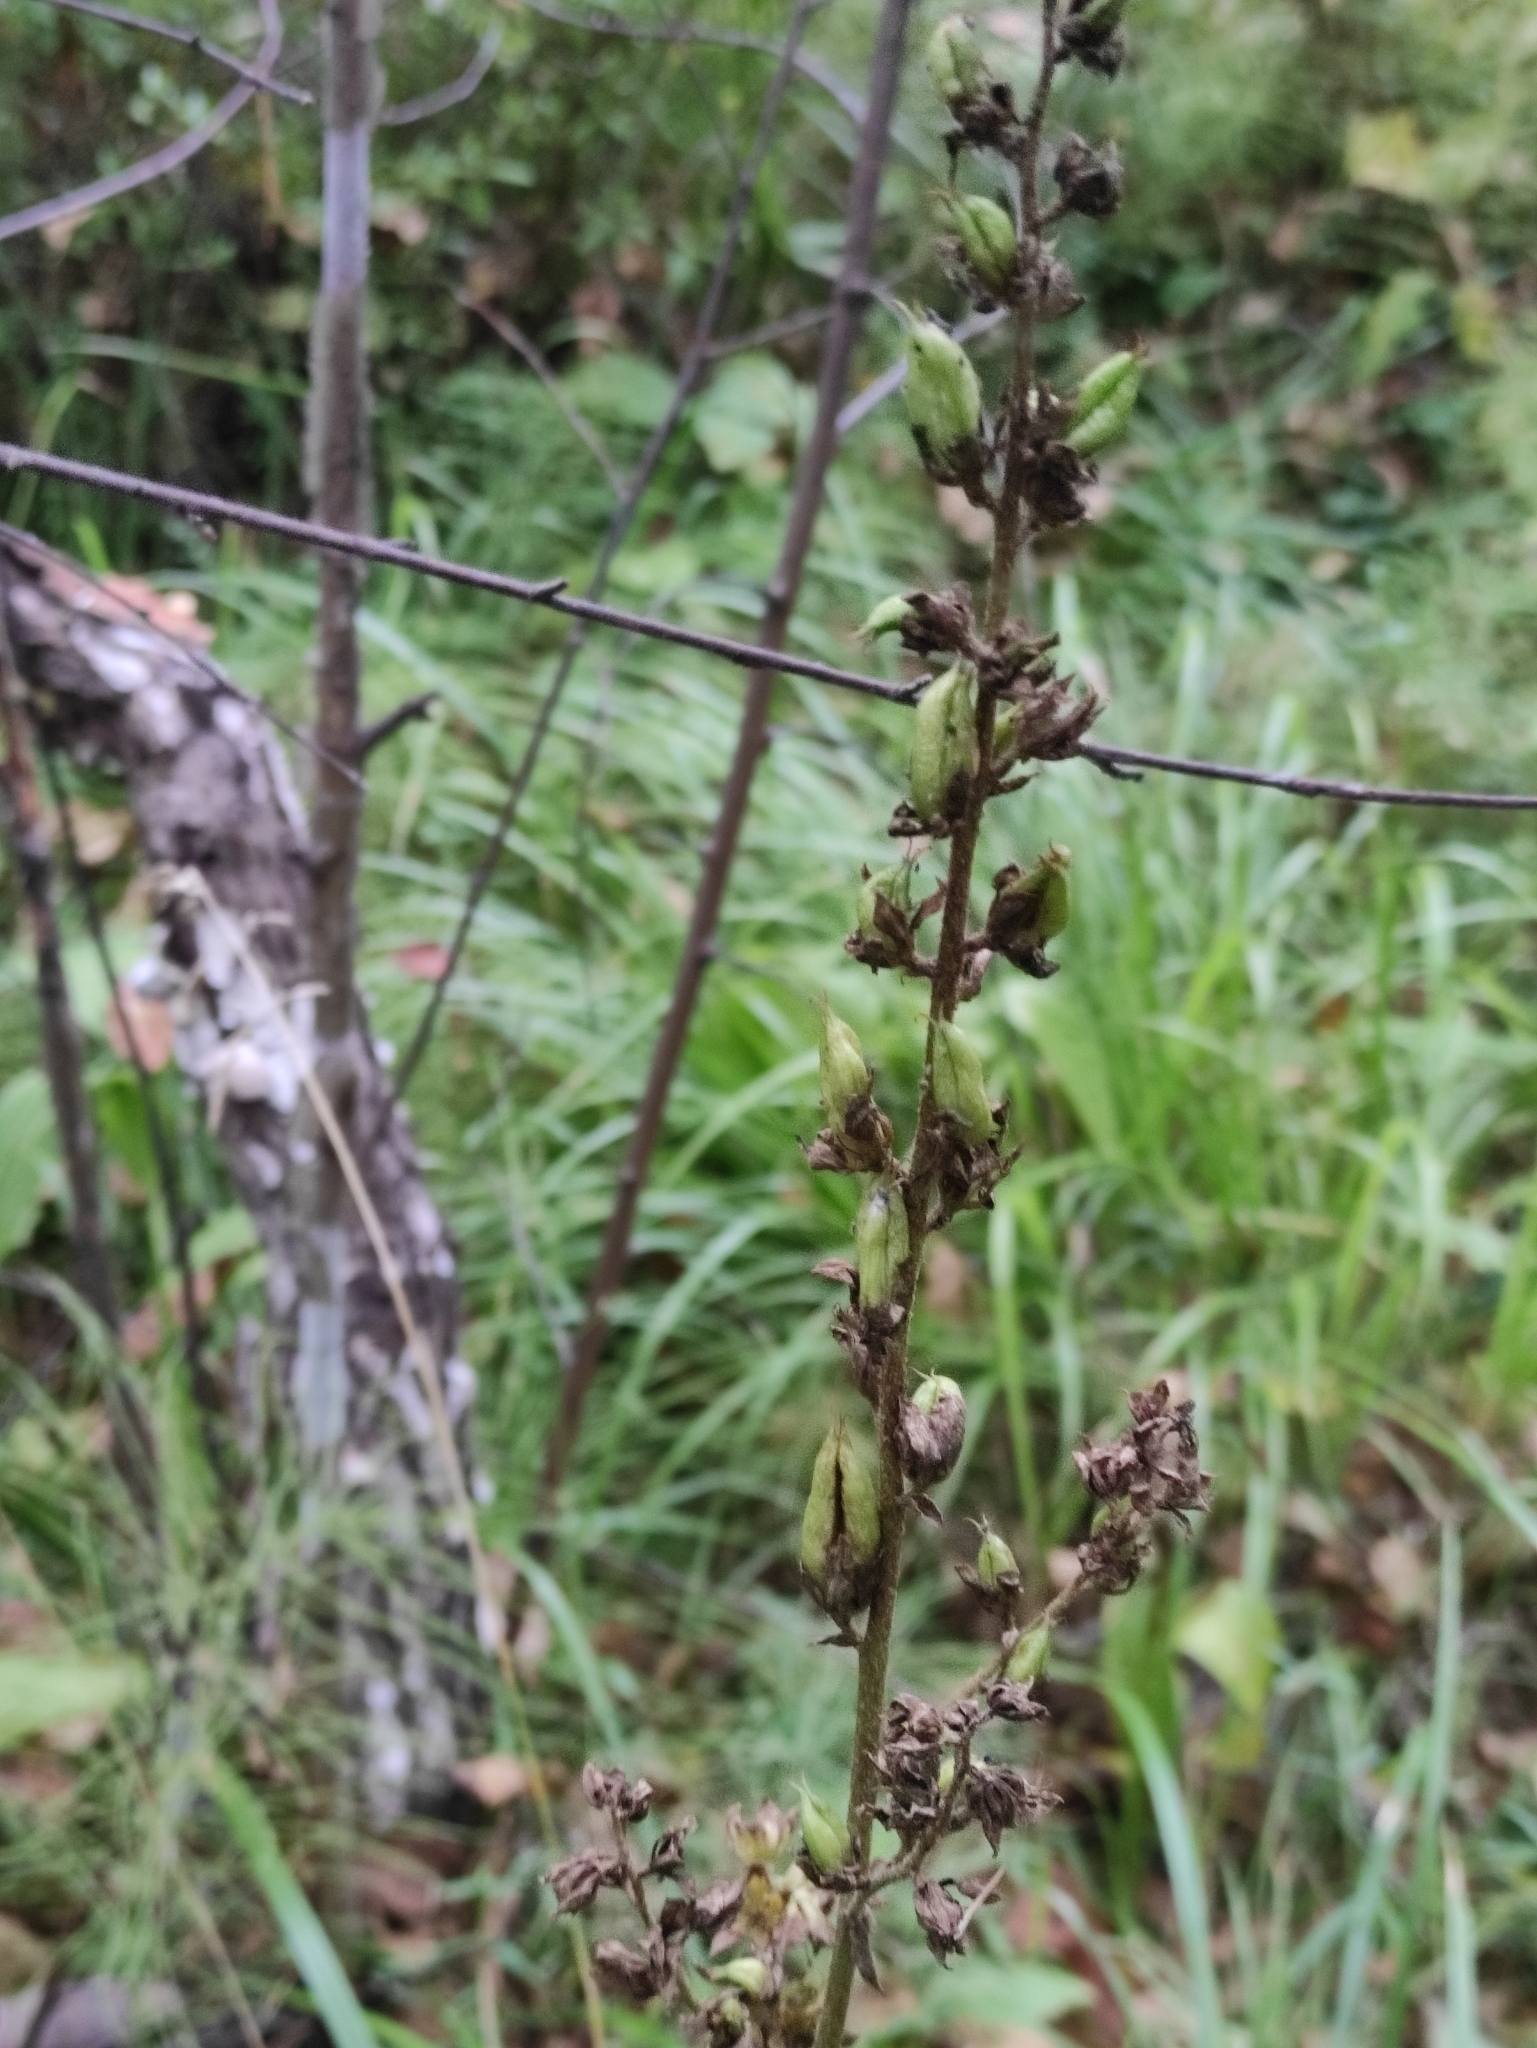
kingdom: Plantae
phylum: Tracheophyta
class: Liliopsida
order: Liliales
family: Melanthiaceae
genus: Veratrum
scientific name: Veratrum nigrum
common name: Black veratrum
